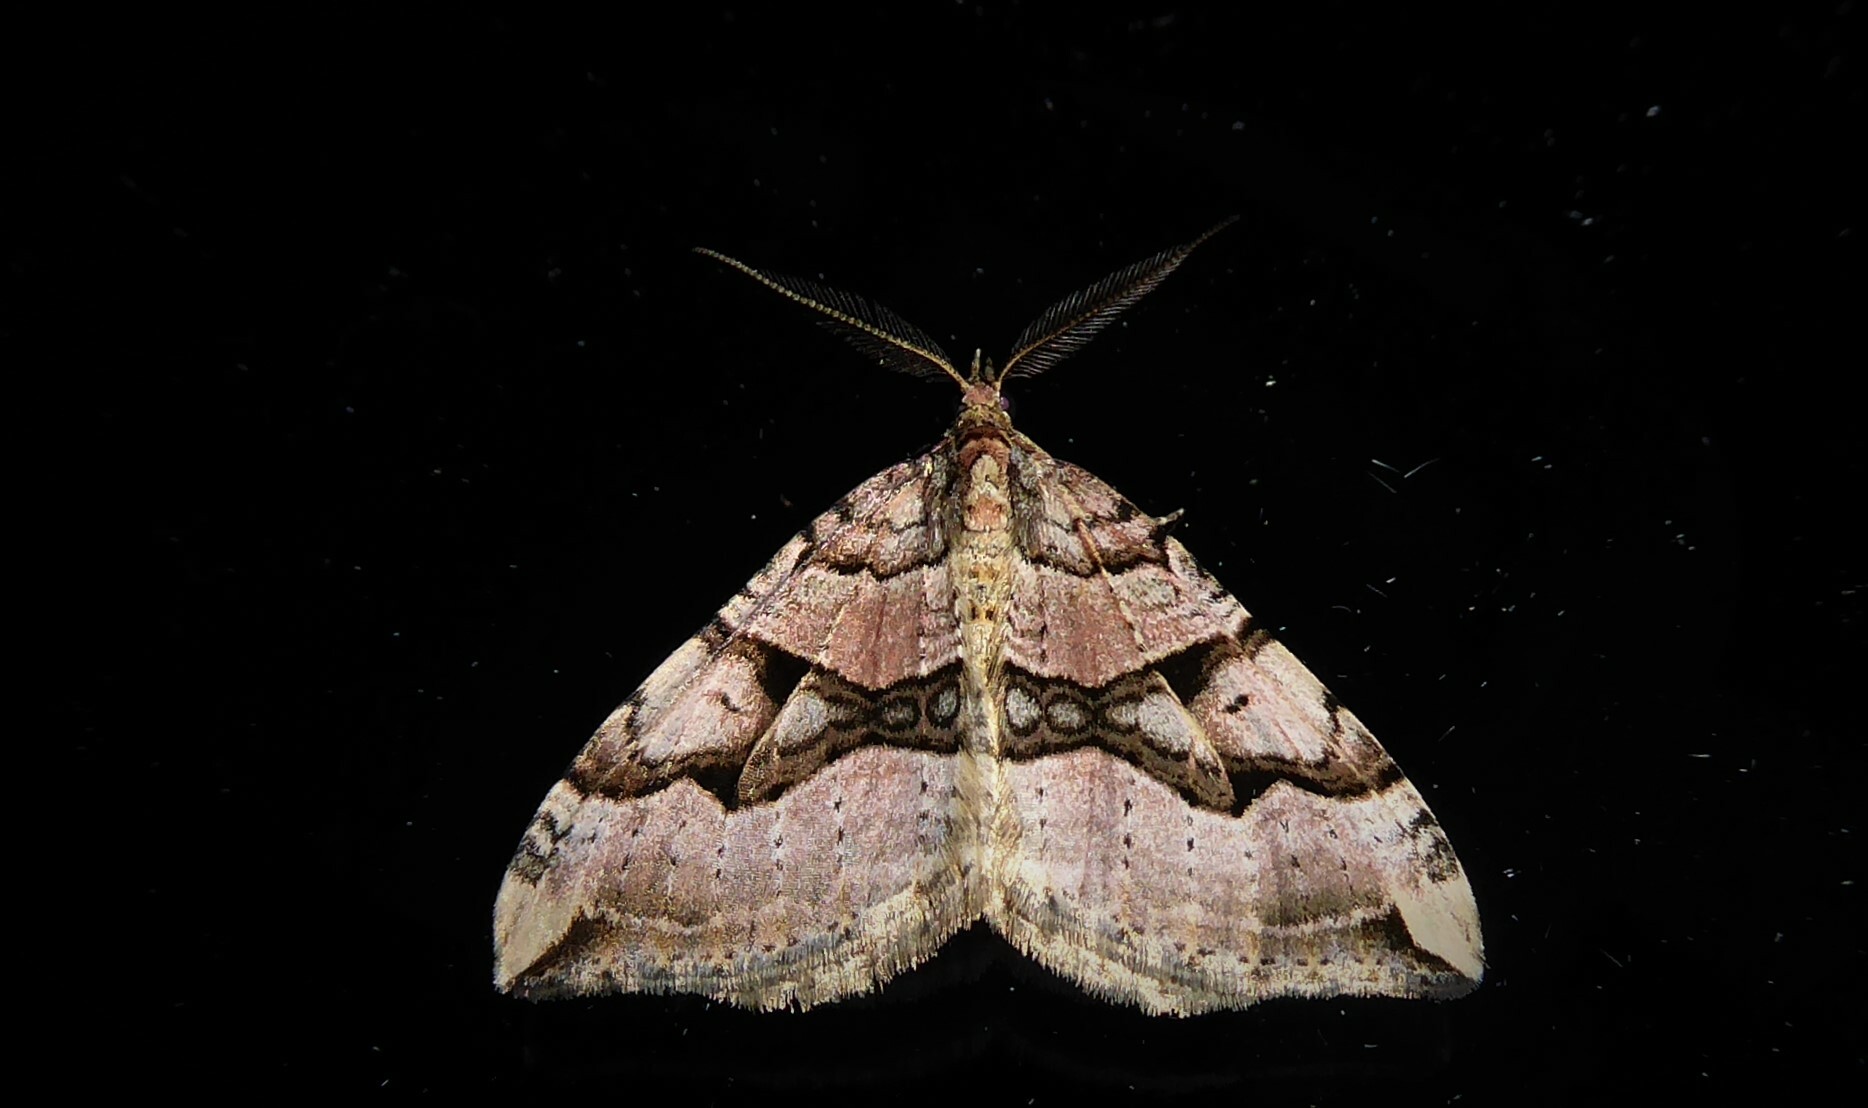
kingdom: Animalia
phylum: Arthropoda
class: Insecta
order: Lepidoptera
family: Geometridae
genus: Xanthorhoe
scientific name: Xanthorhoe semifissata
